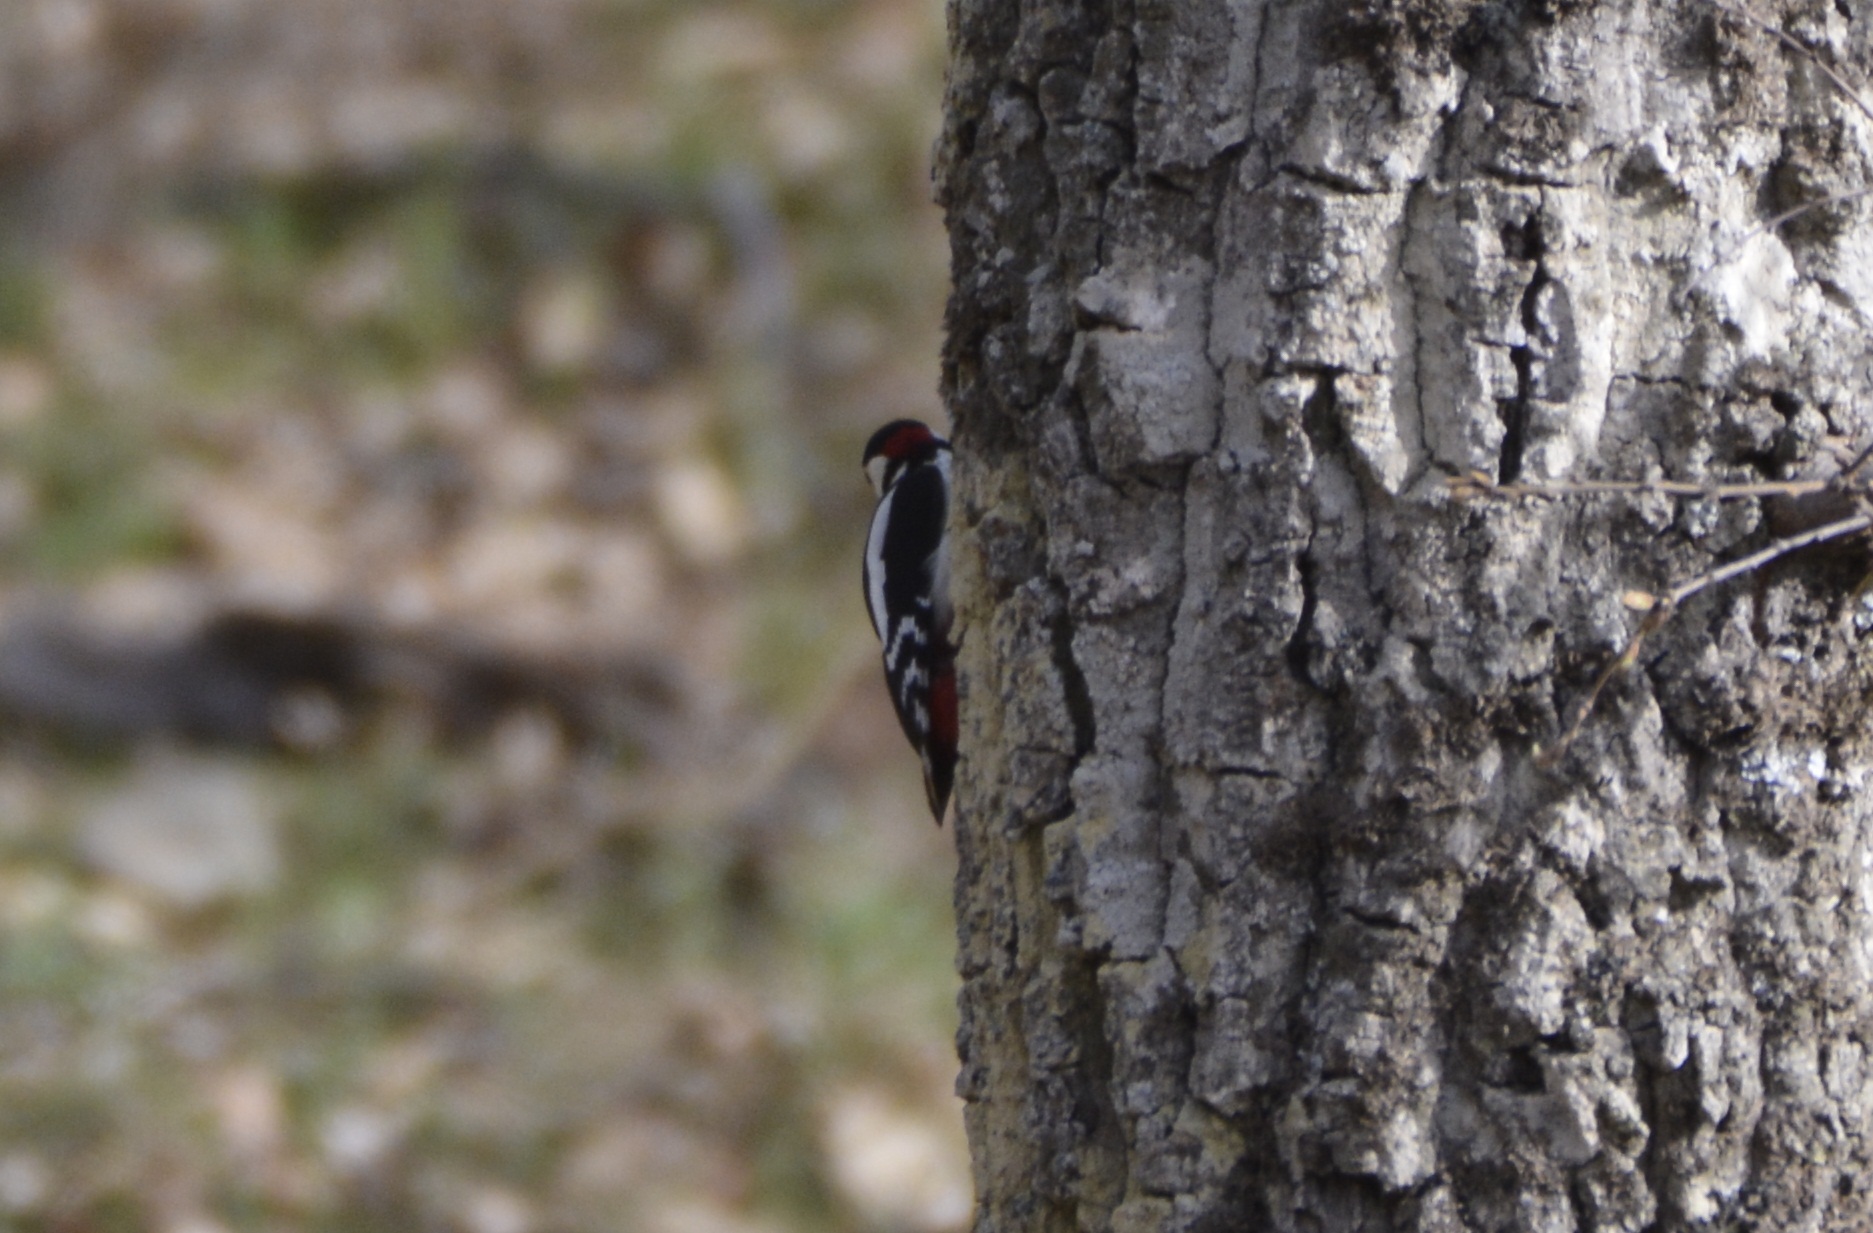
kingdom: Animalia
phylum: Chordata
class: Aves
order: Piciformes
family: Picidae
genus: Dendrocopos
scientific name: Dendrocopos major
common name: Great spotted woodpecker
